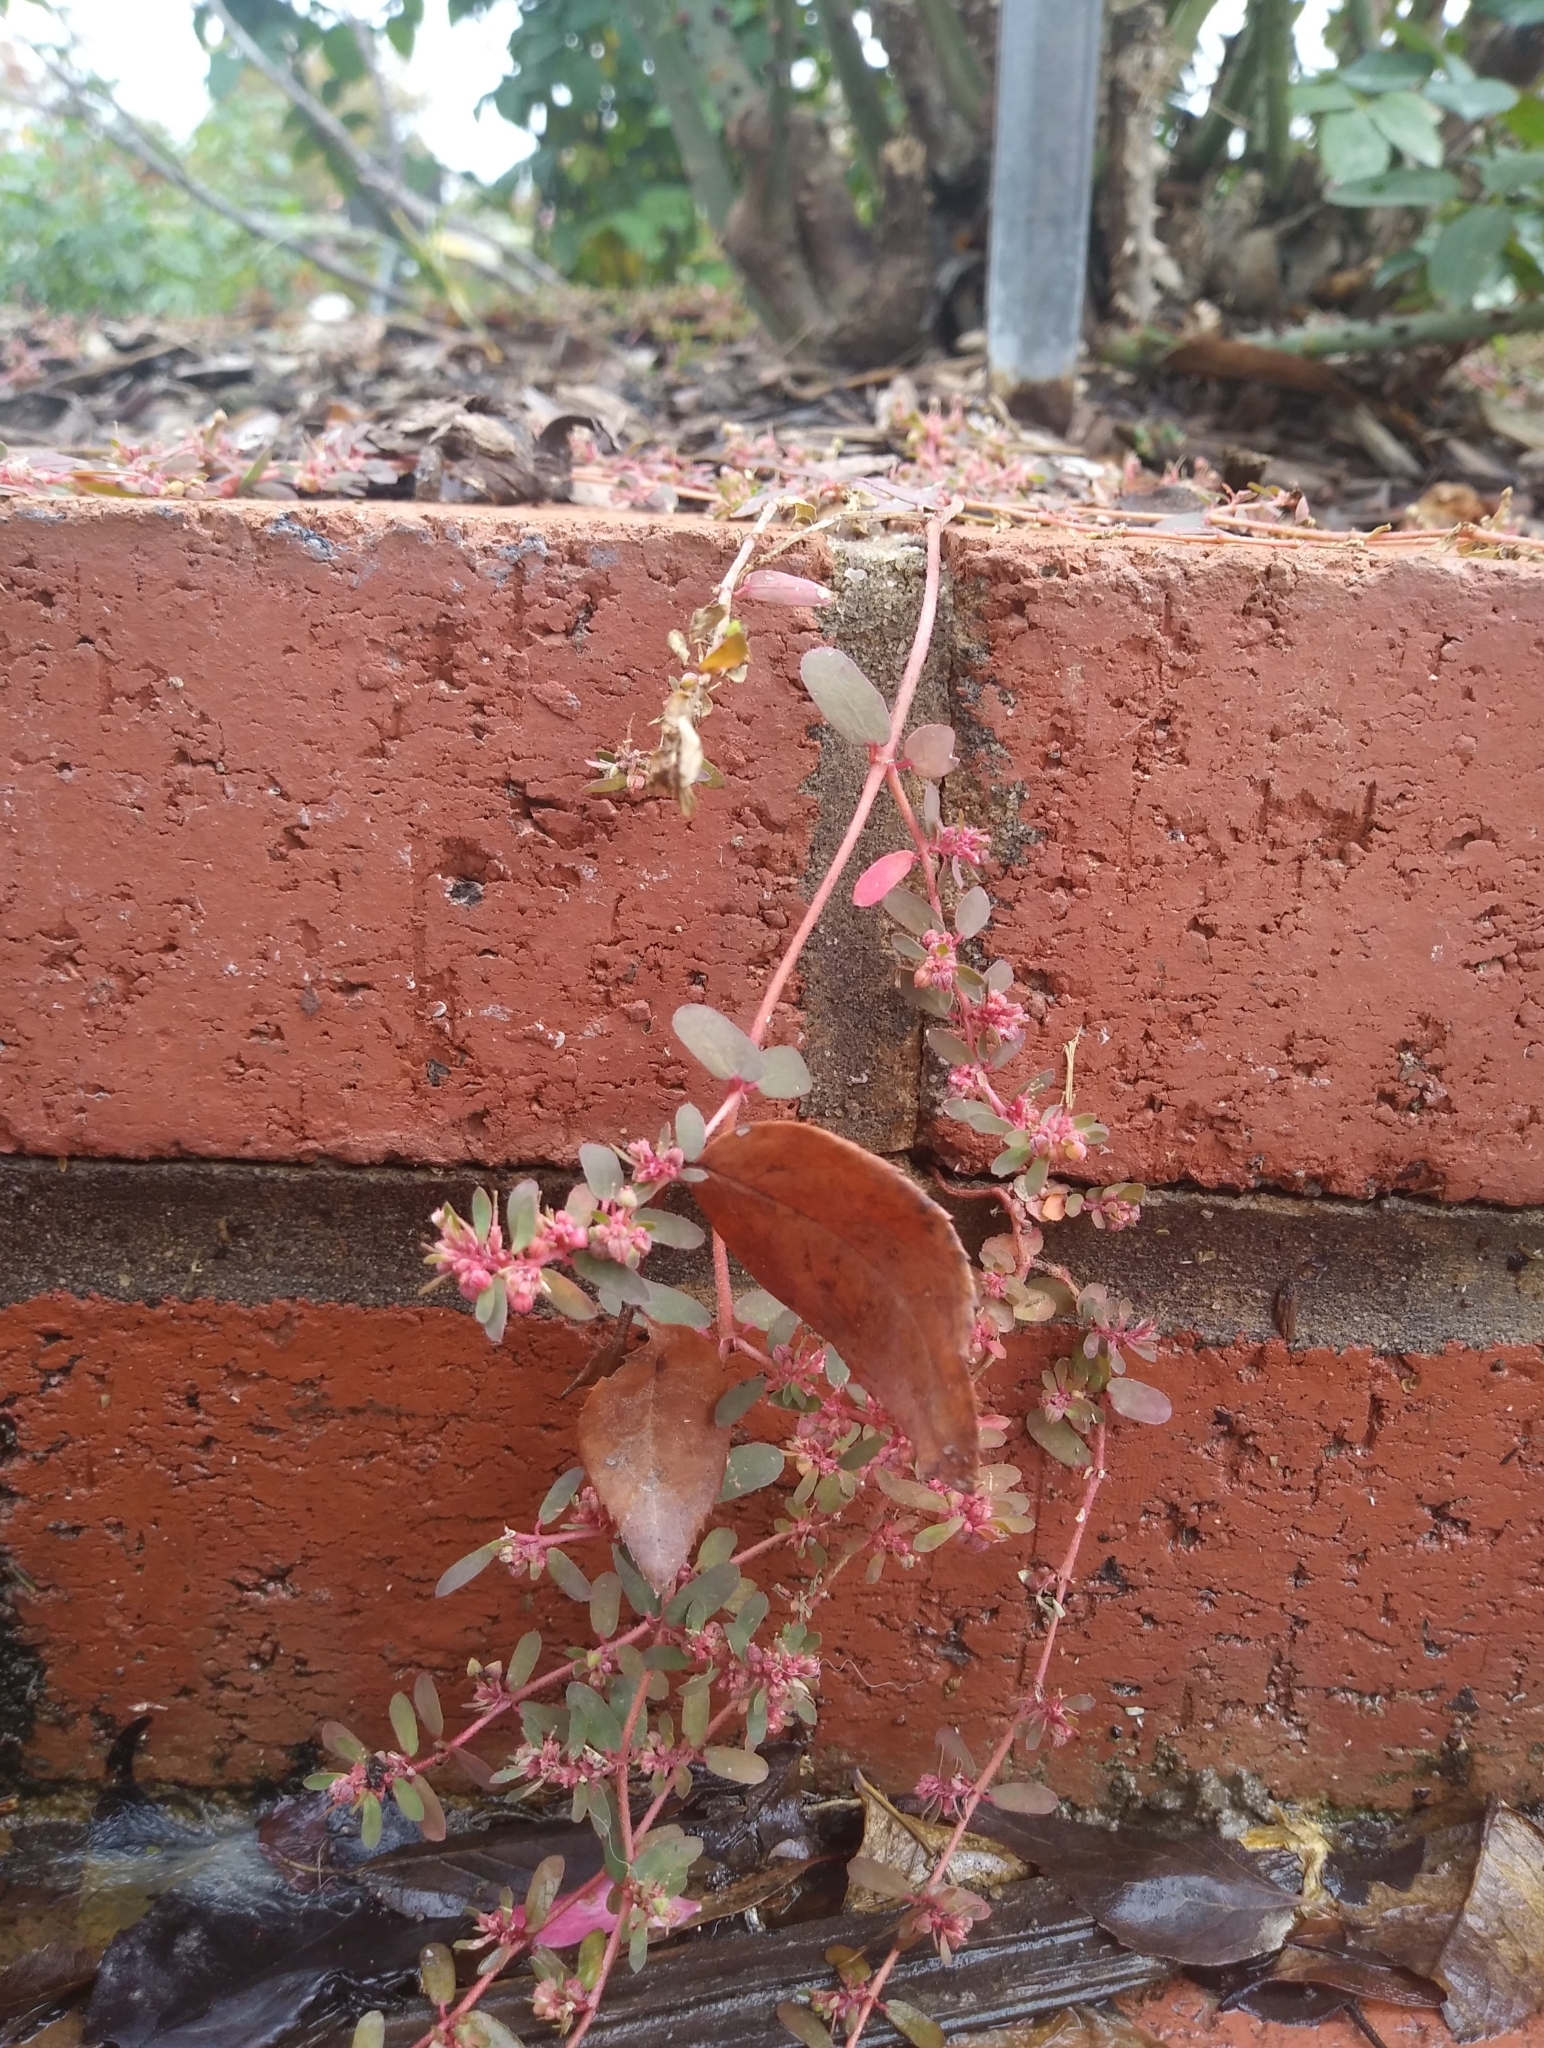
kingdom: Plantae
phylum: Tracheophyta
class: Magnoliopsida
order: Malpighiales
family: Euphorbiaceae
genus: Euphorbia
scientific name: Euphorbia maculata
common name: Spotted spurge
